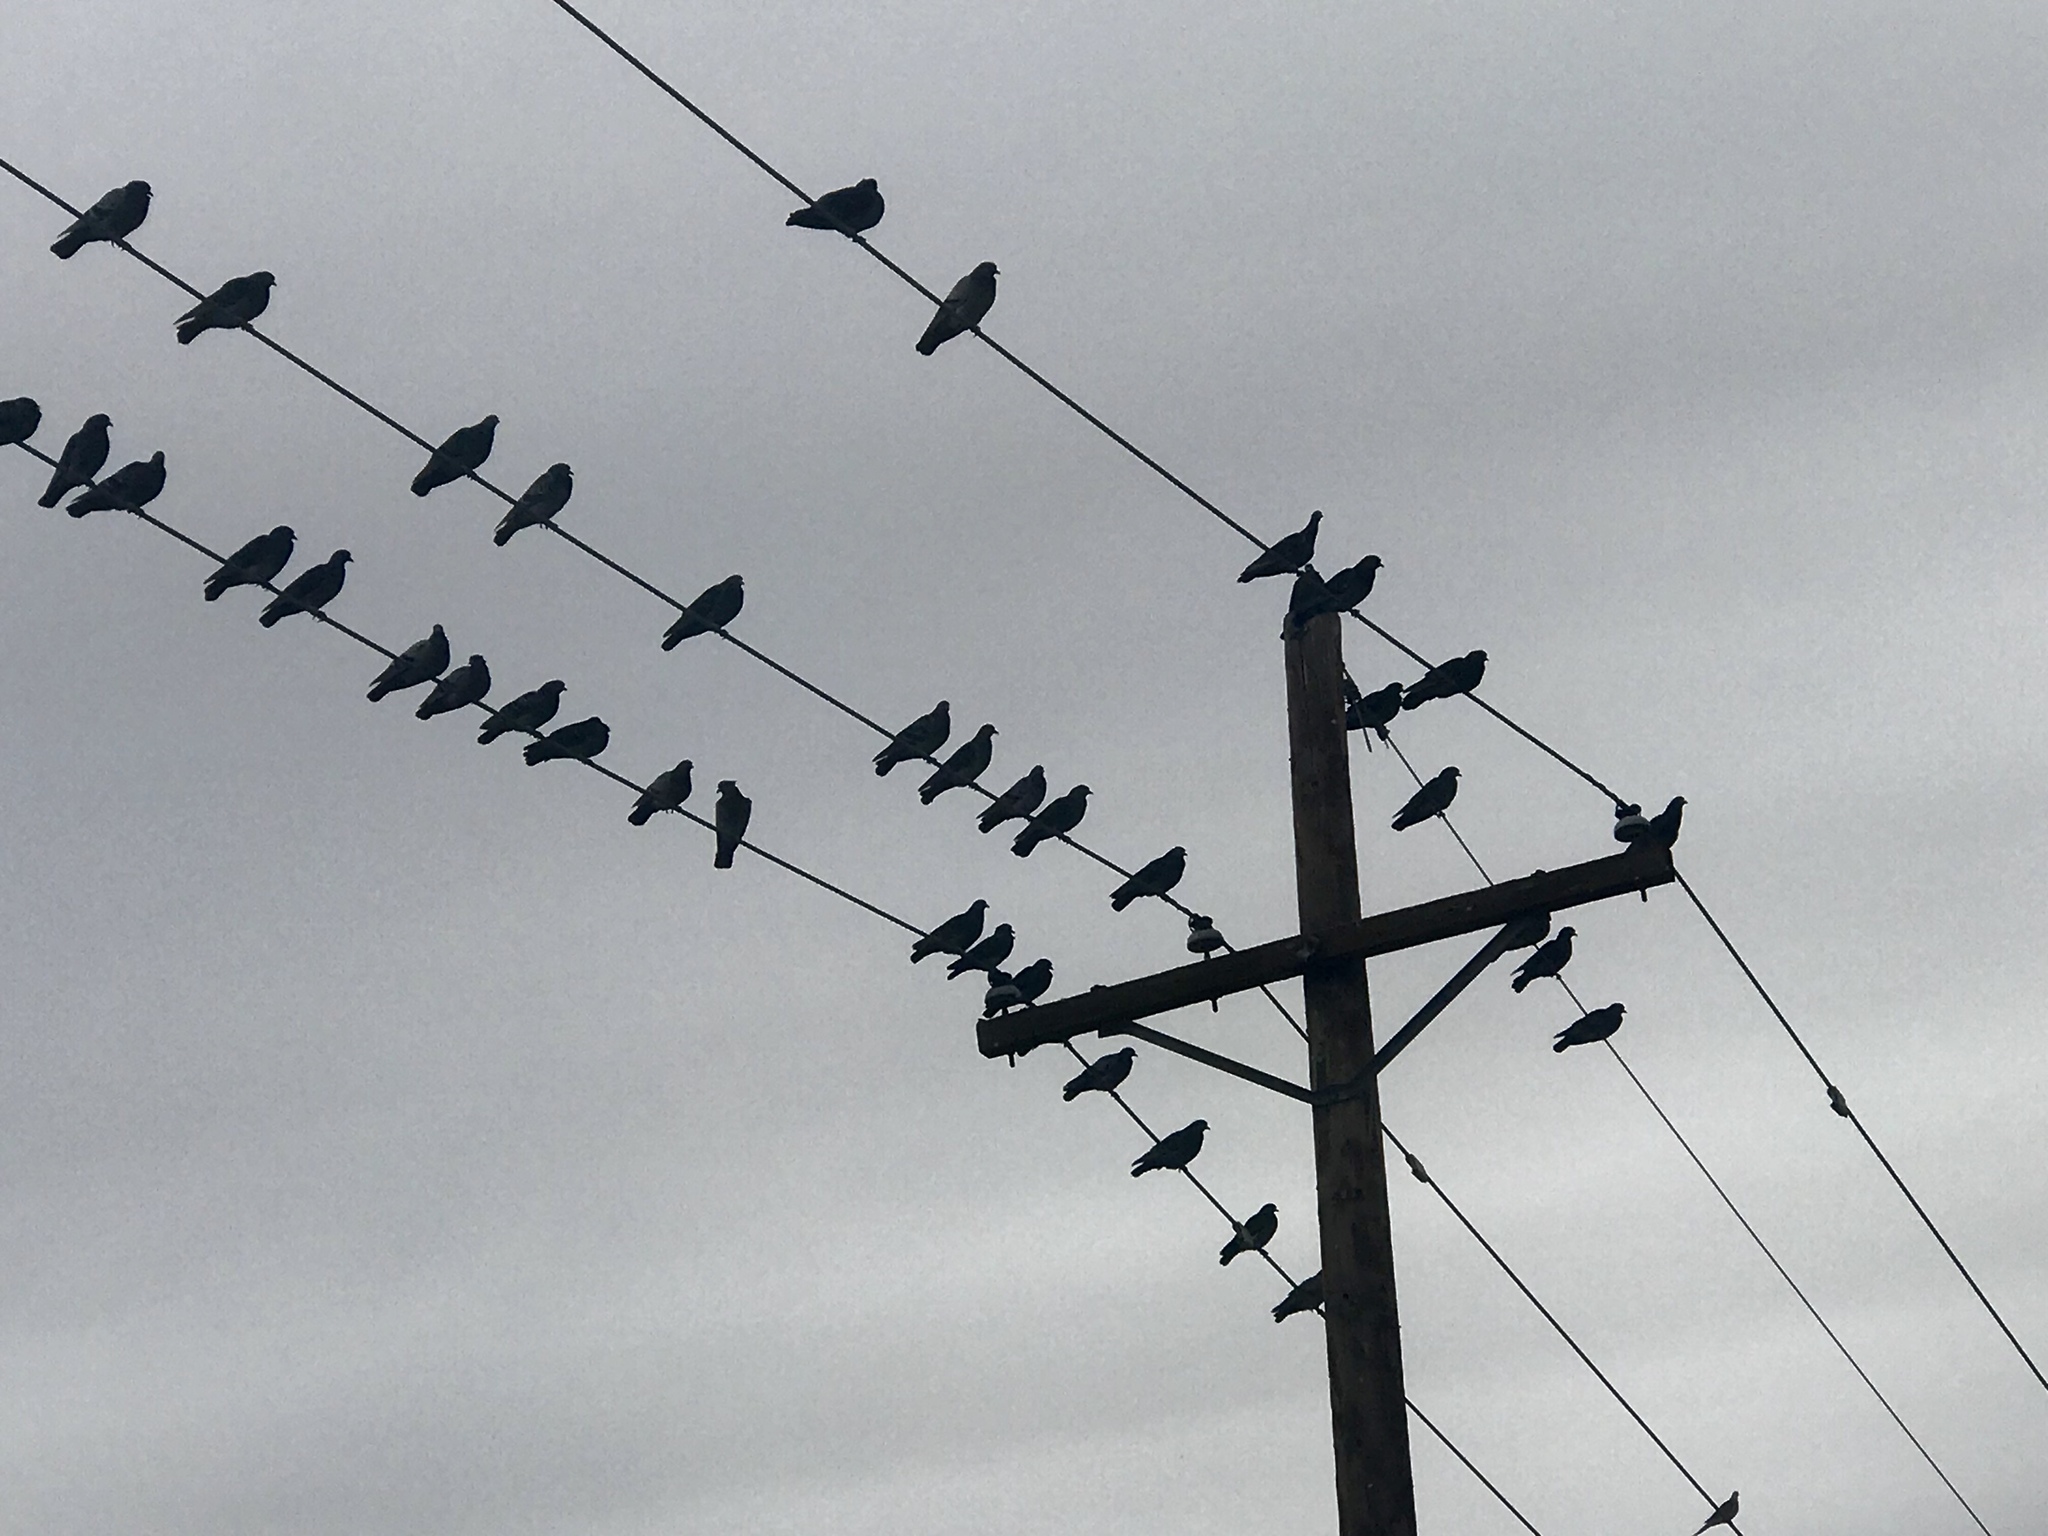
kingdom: Animalia
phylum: Chordata
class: Aves
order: Columbiformes
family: Columbidae
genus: Columba
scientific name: Columba livia
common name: Rock pigeon
